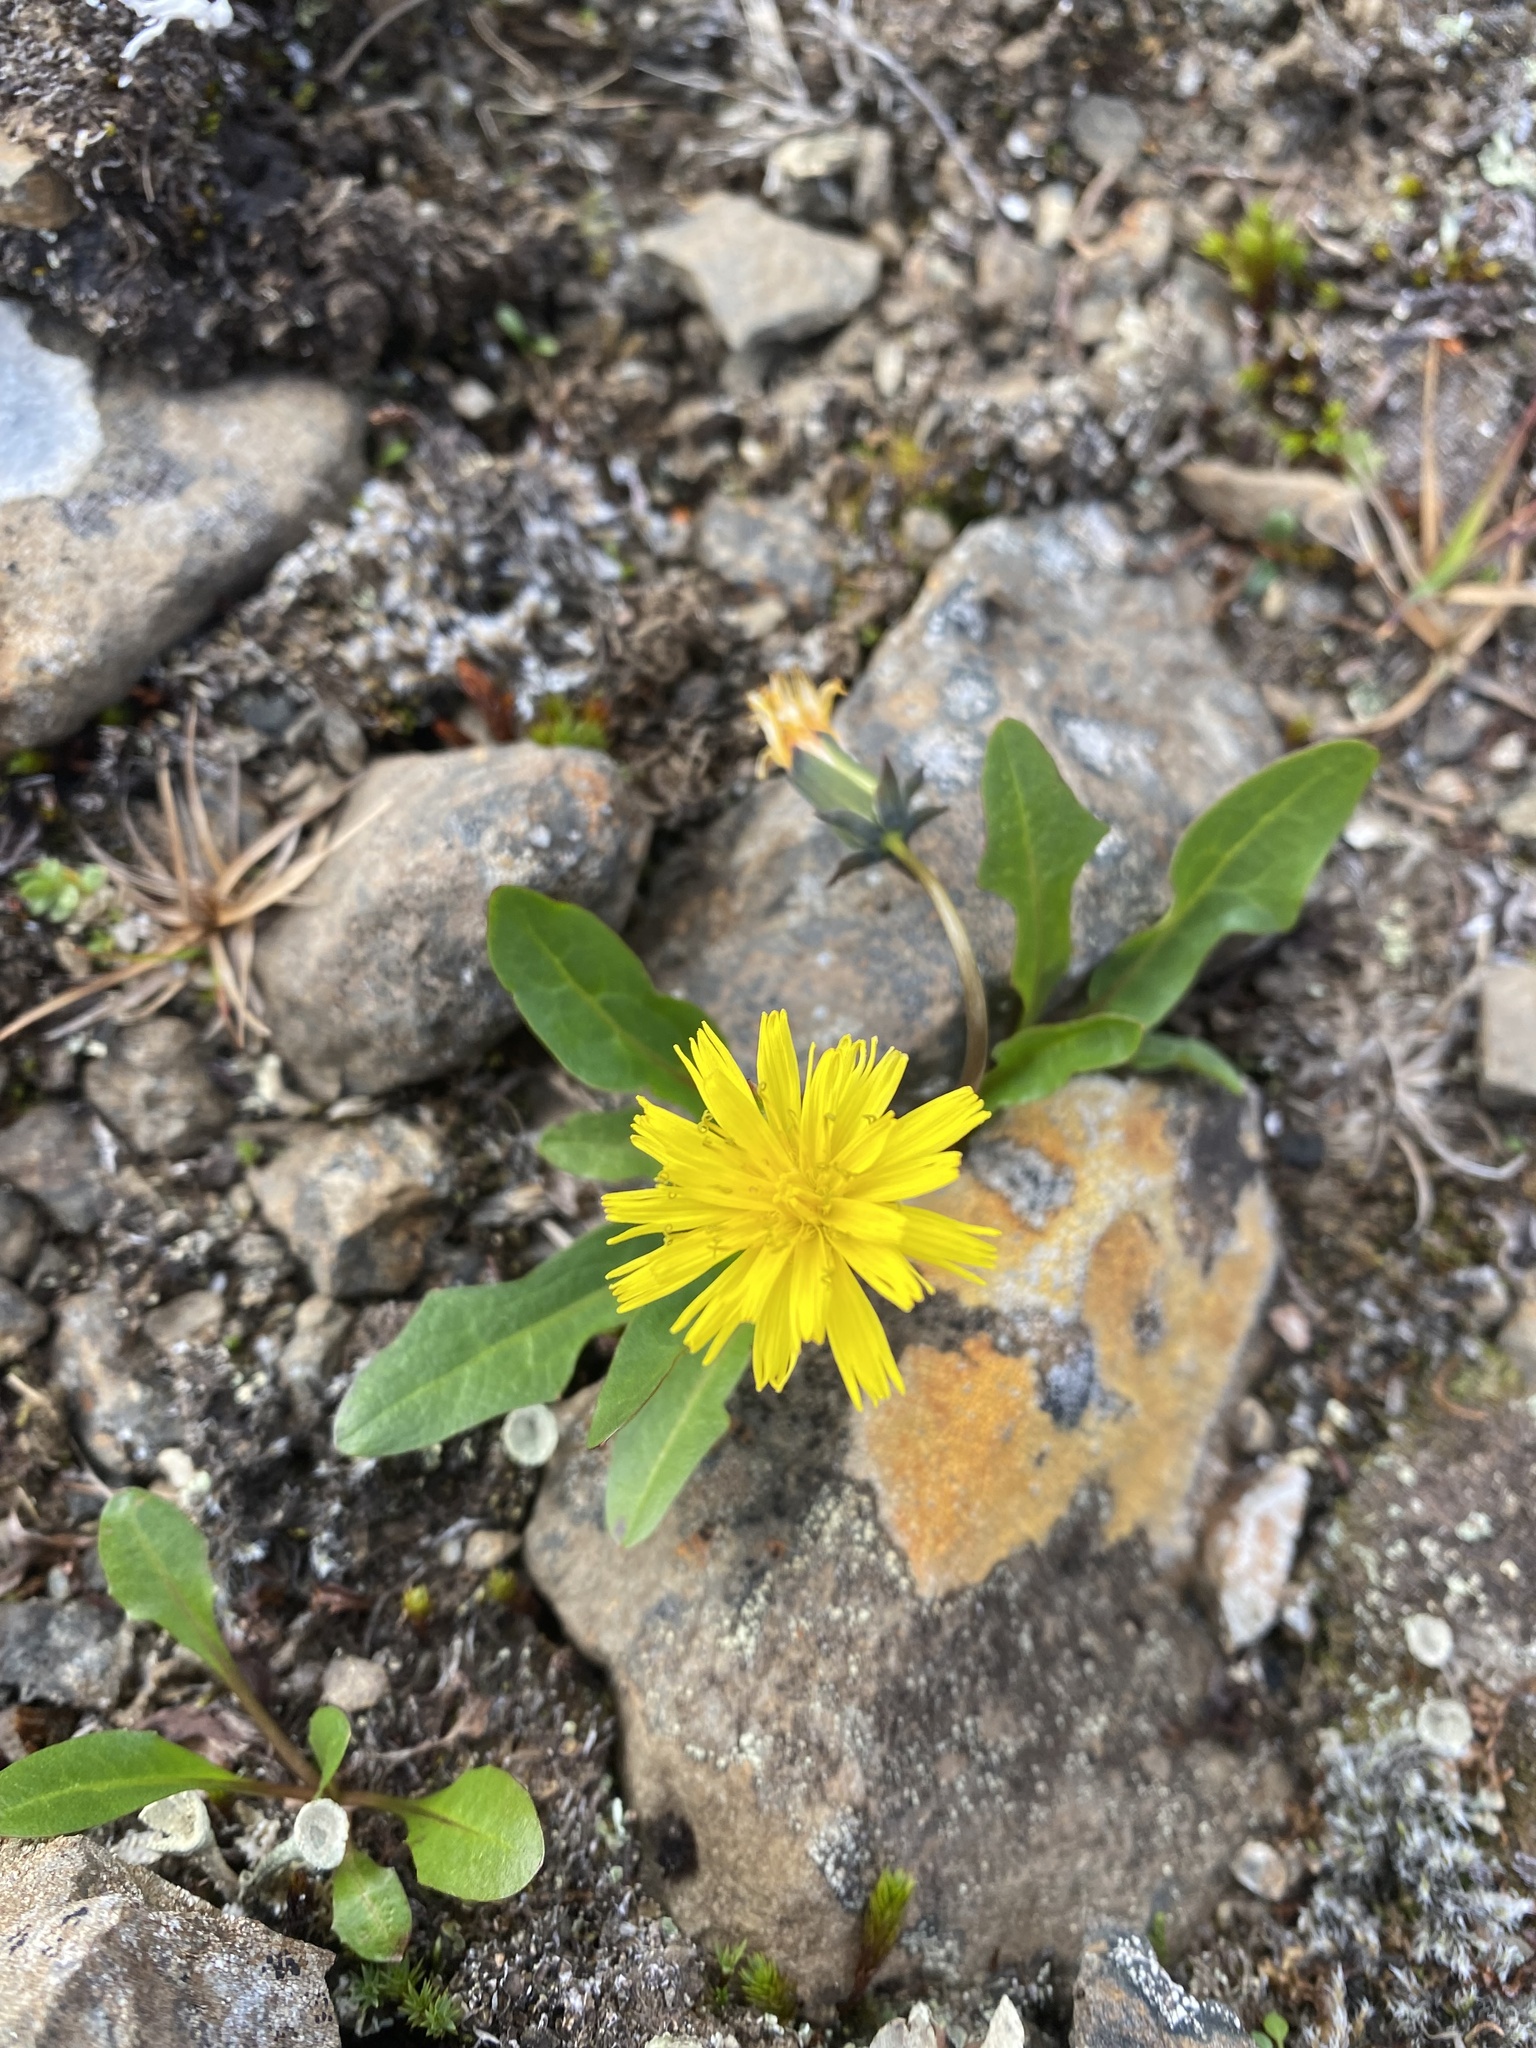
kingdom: Plantae
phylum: Tracheophyta
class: Magnoliopsida
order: Asterales
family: Asteraceae
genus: Taraxacum
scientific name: Taraxacum glabrum
